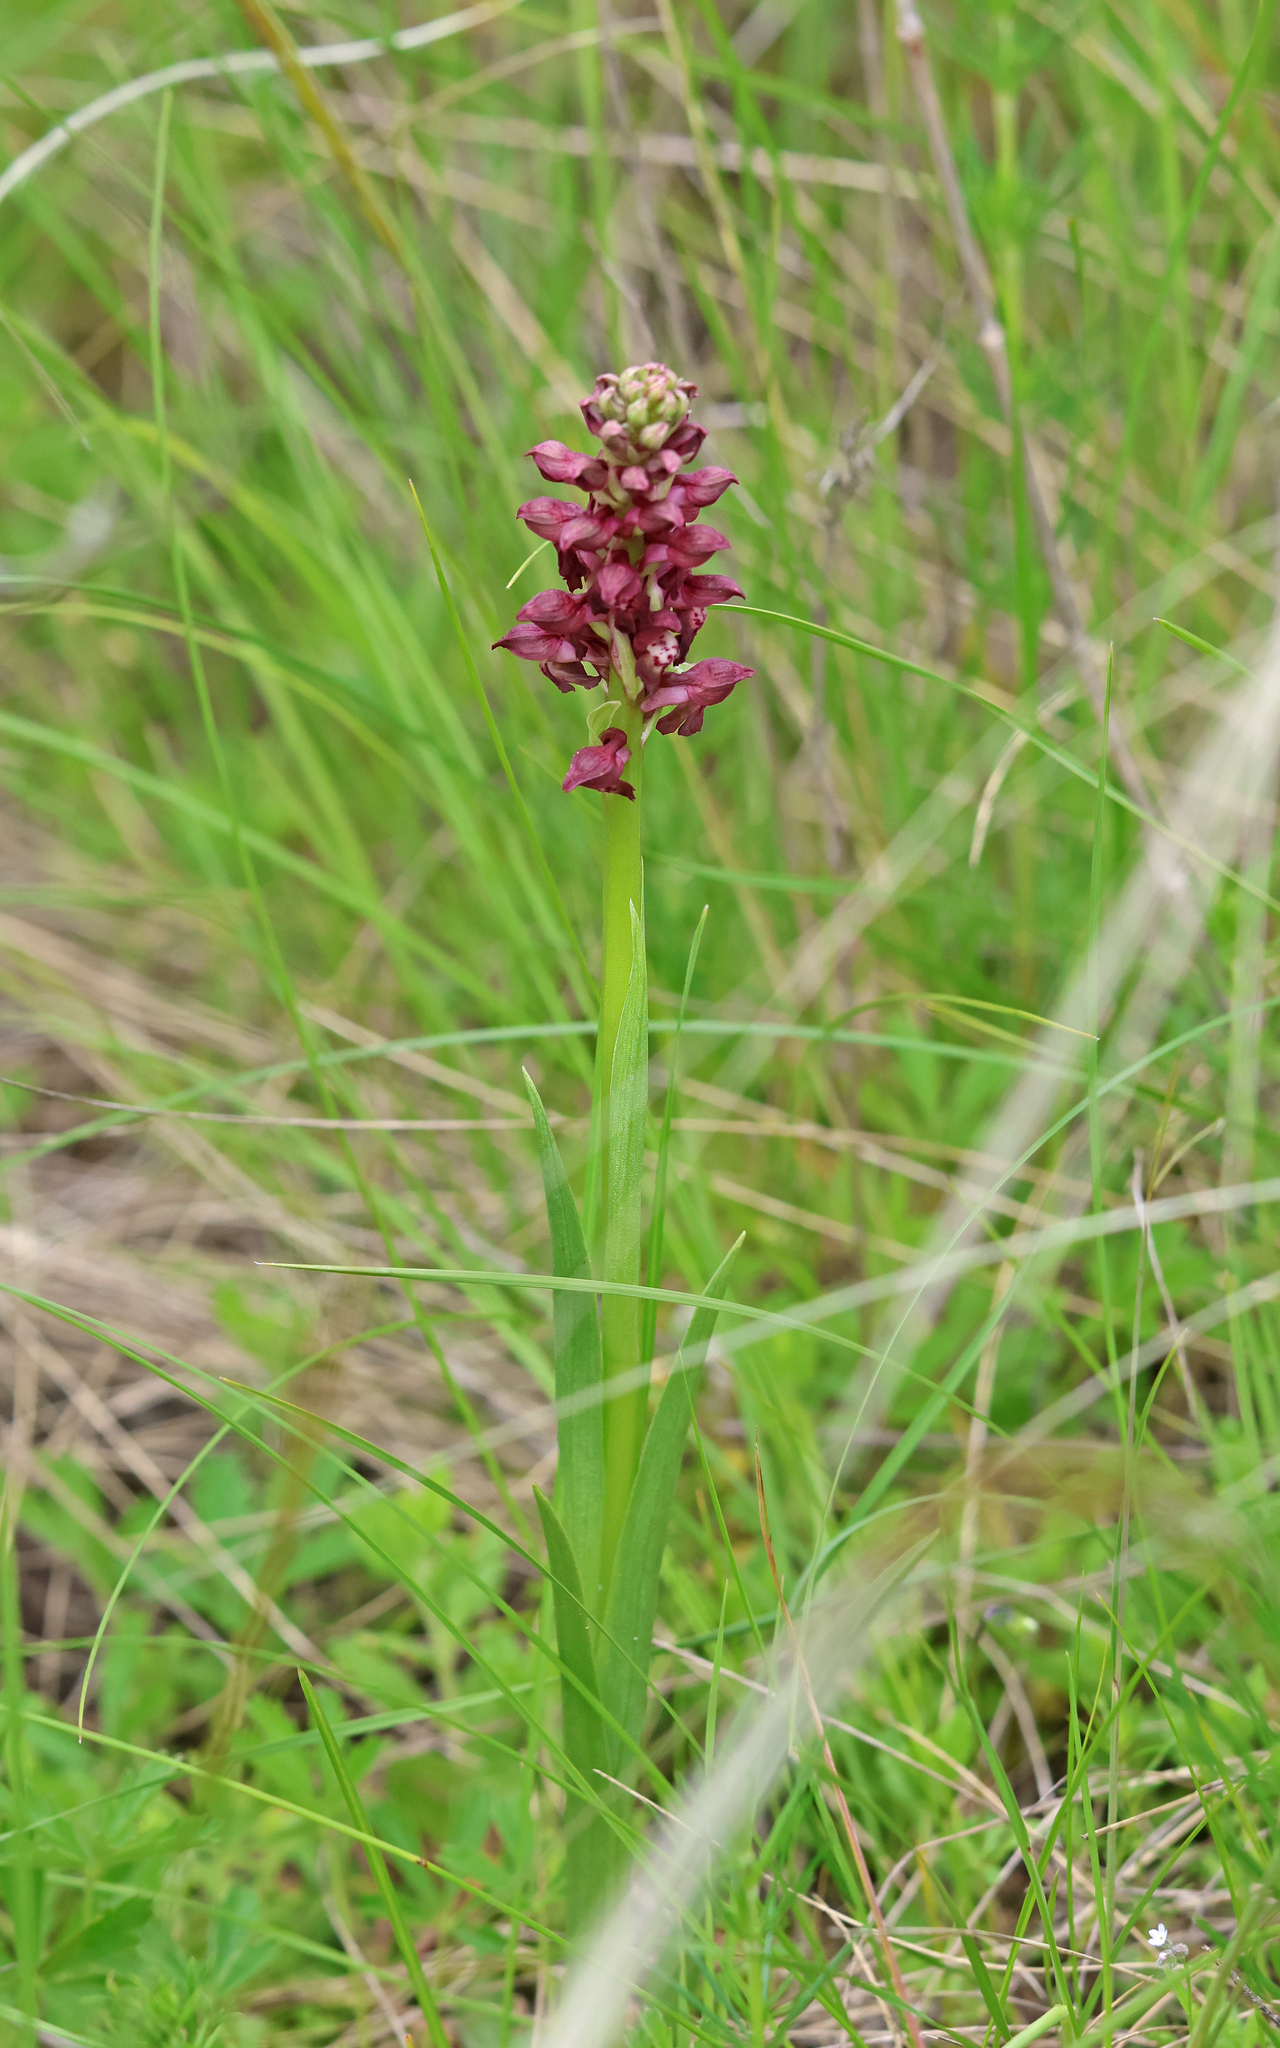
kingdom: Plantae
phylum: Tracheophyta
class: Liliopsida
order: Asparagales
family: Orchidaceae
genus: Anacamptis
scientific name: Anacamptis coriophora
